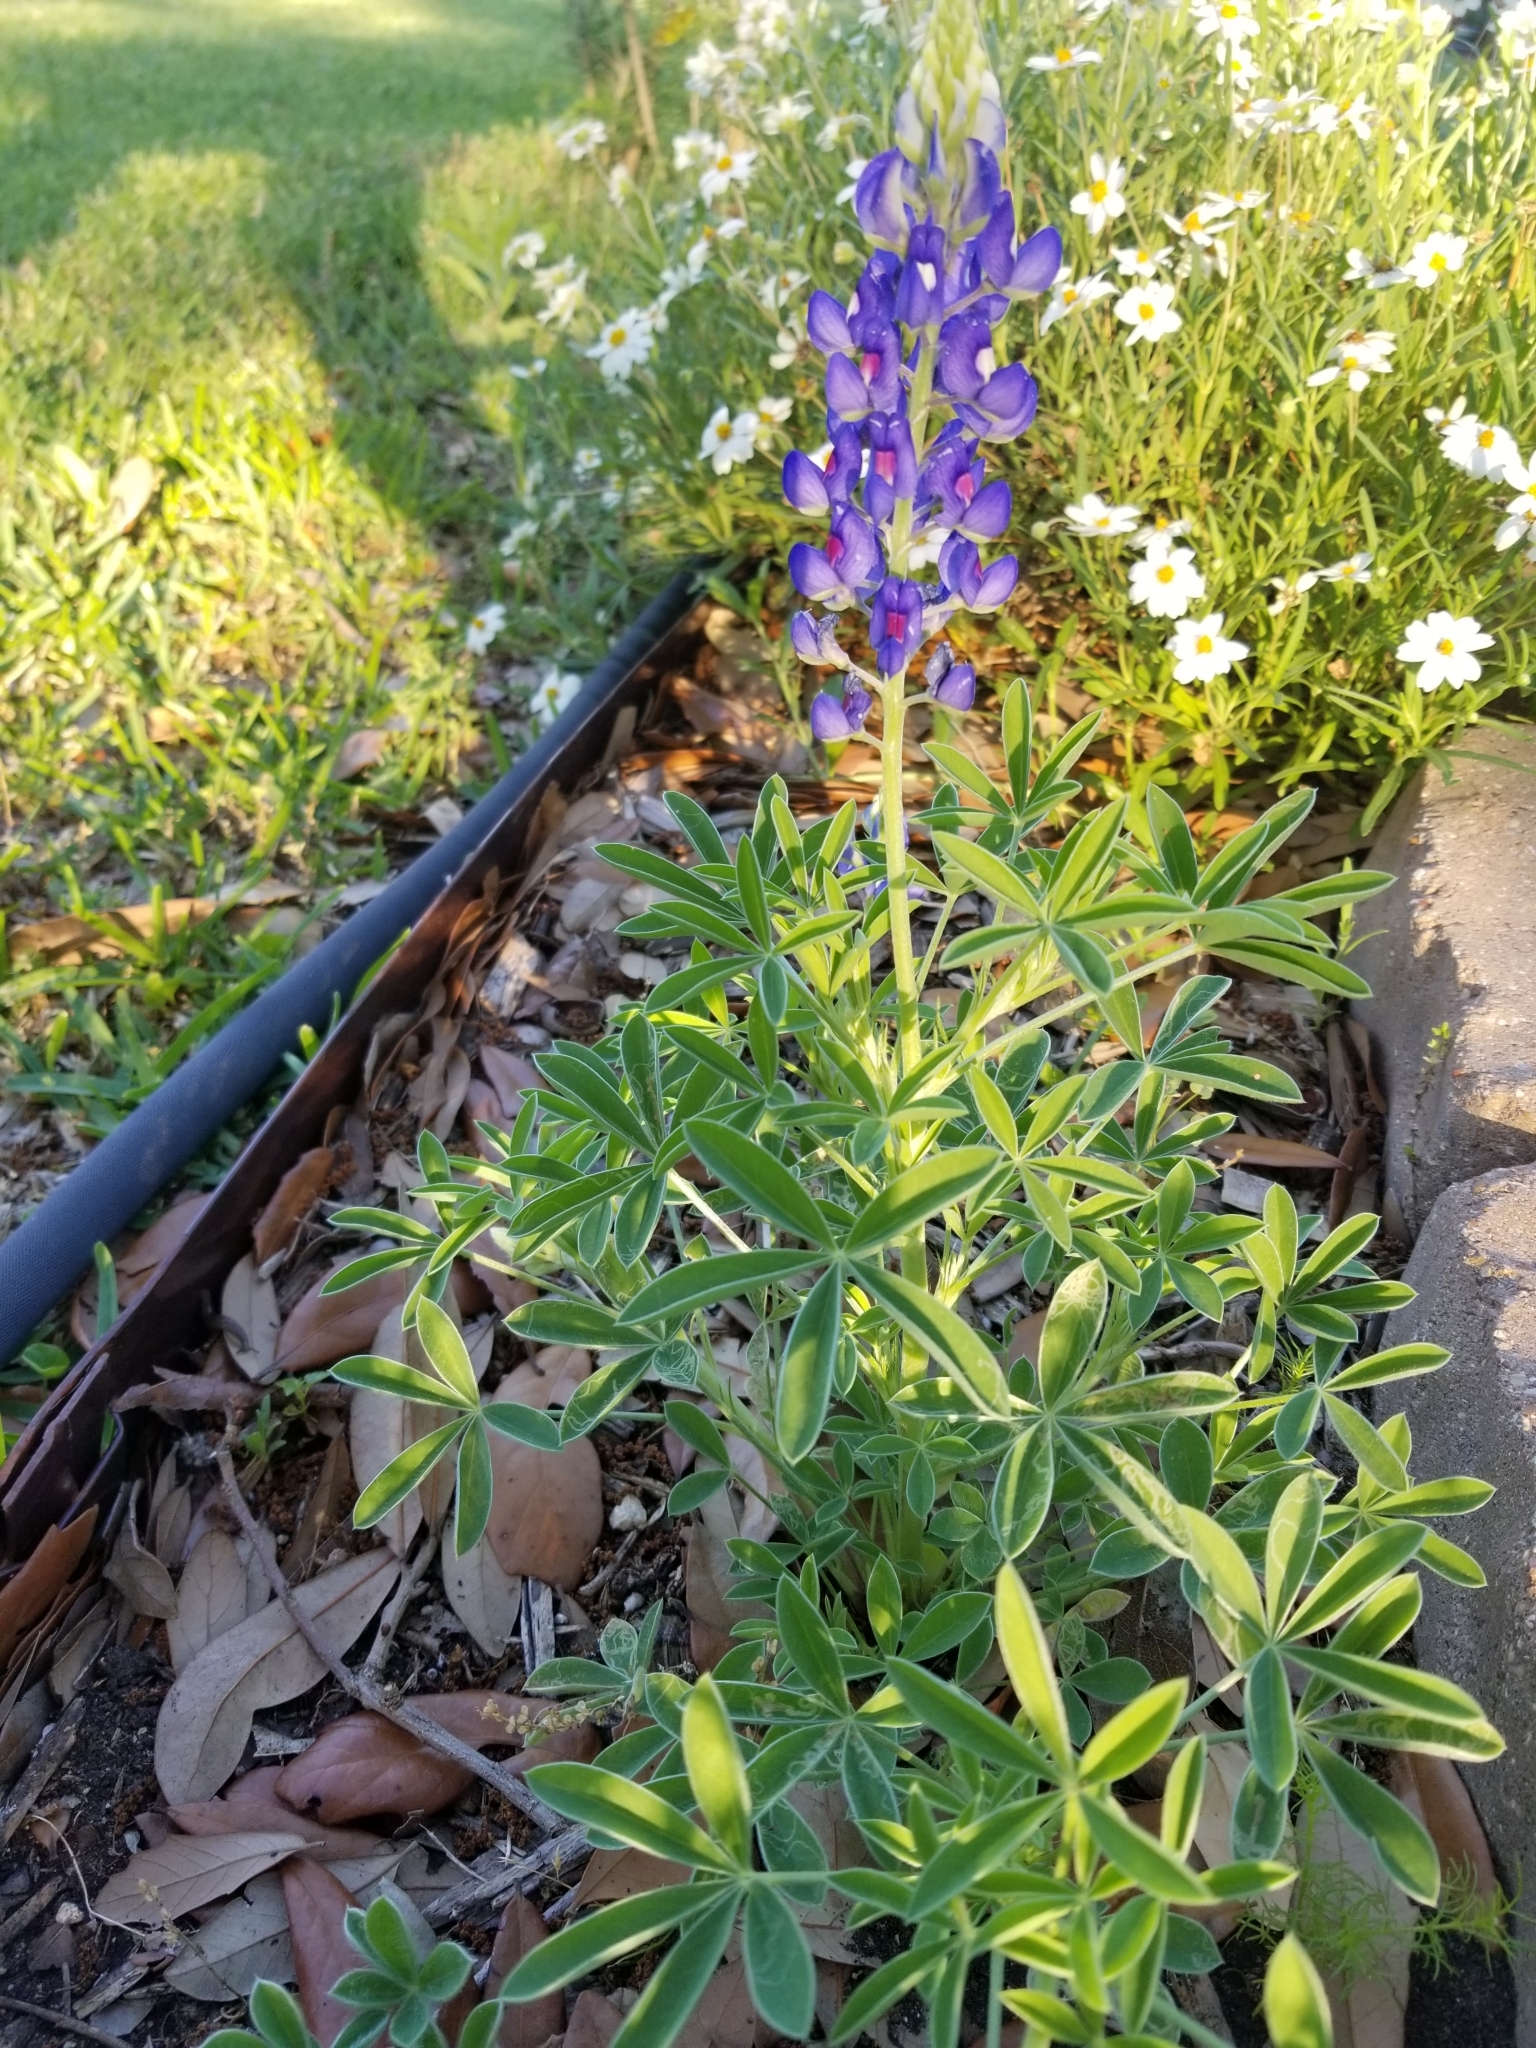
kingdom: Plantae
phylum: Tracheophyta
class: Magnoliopsida
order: Fabales
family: Fabaceae
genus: Lupinus
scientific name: Lupinus texensis
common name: Texas bluebonnet
